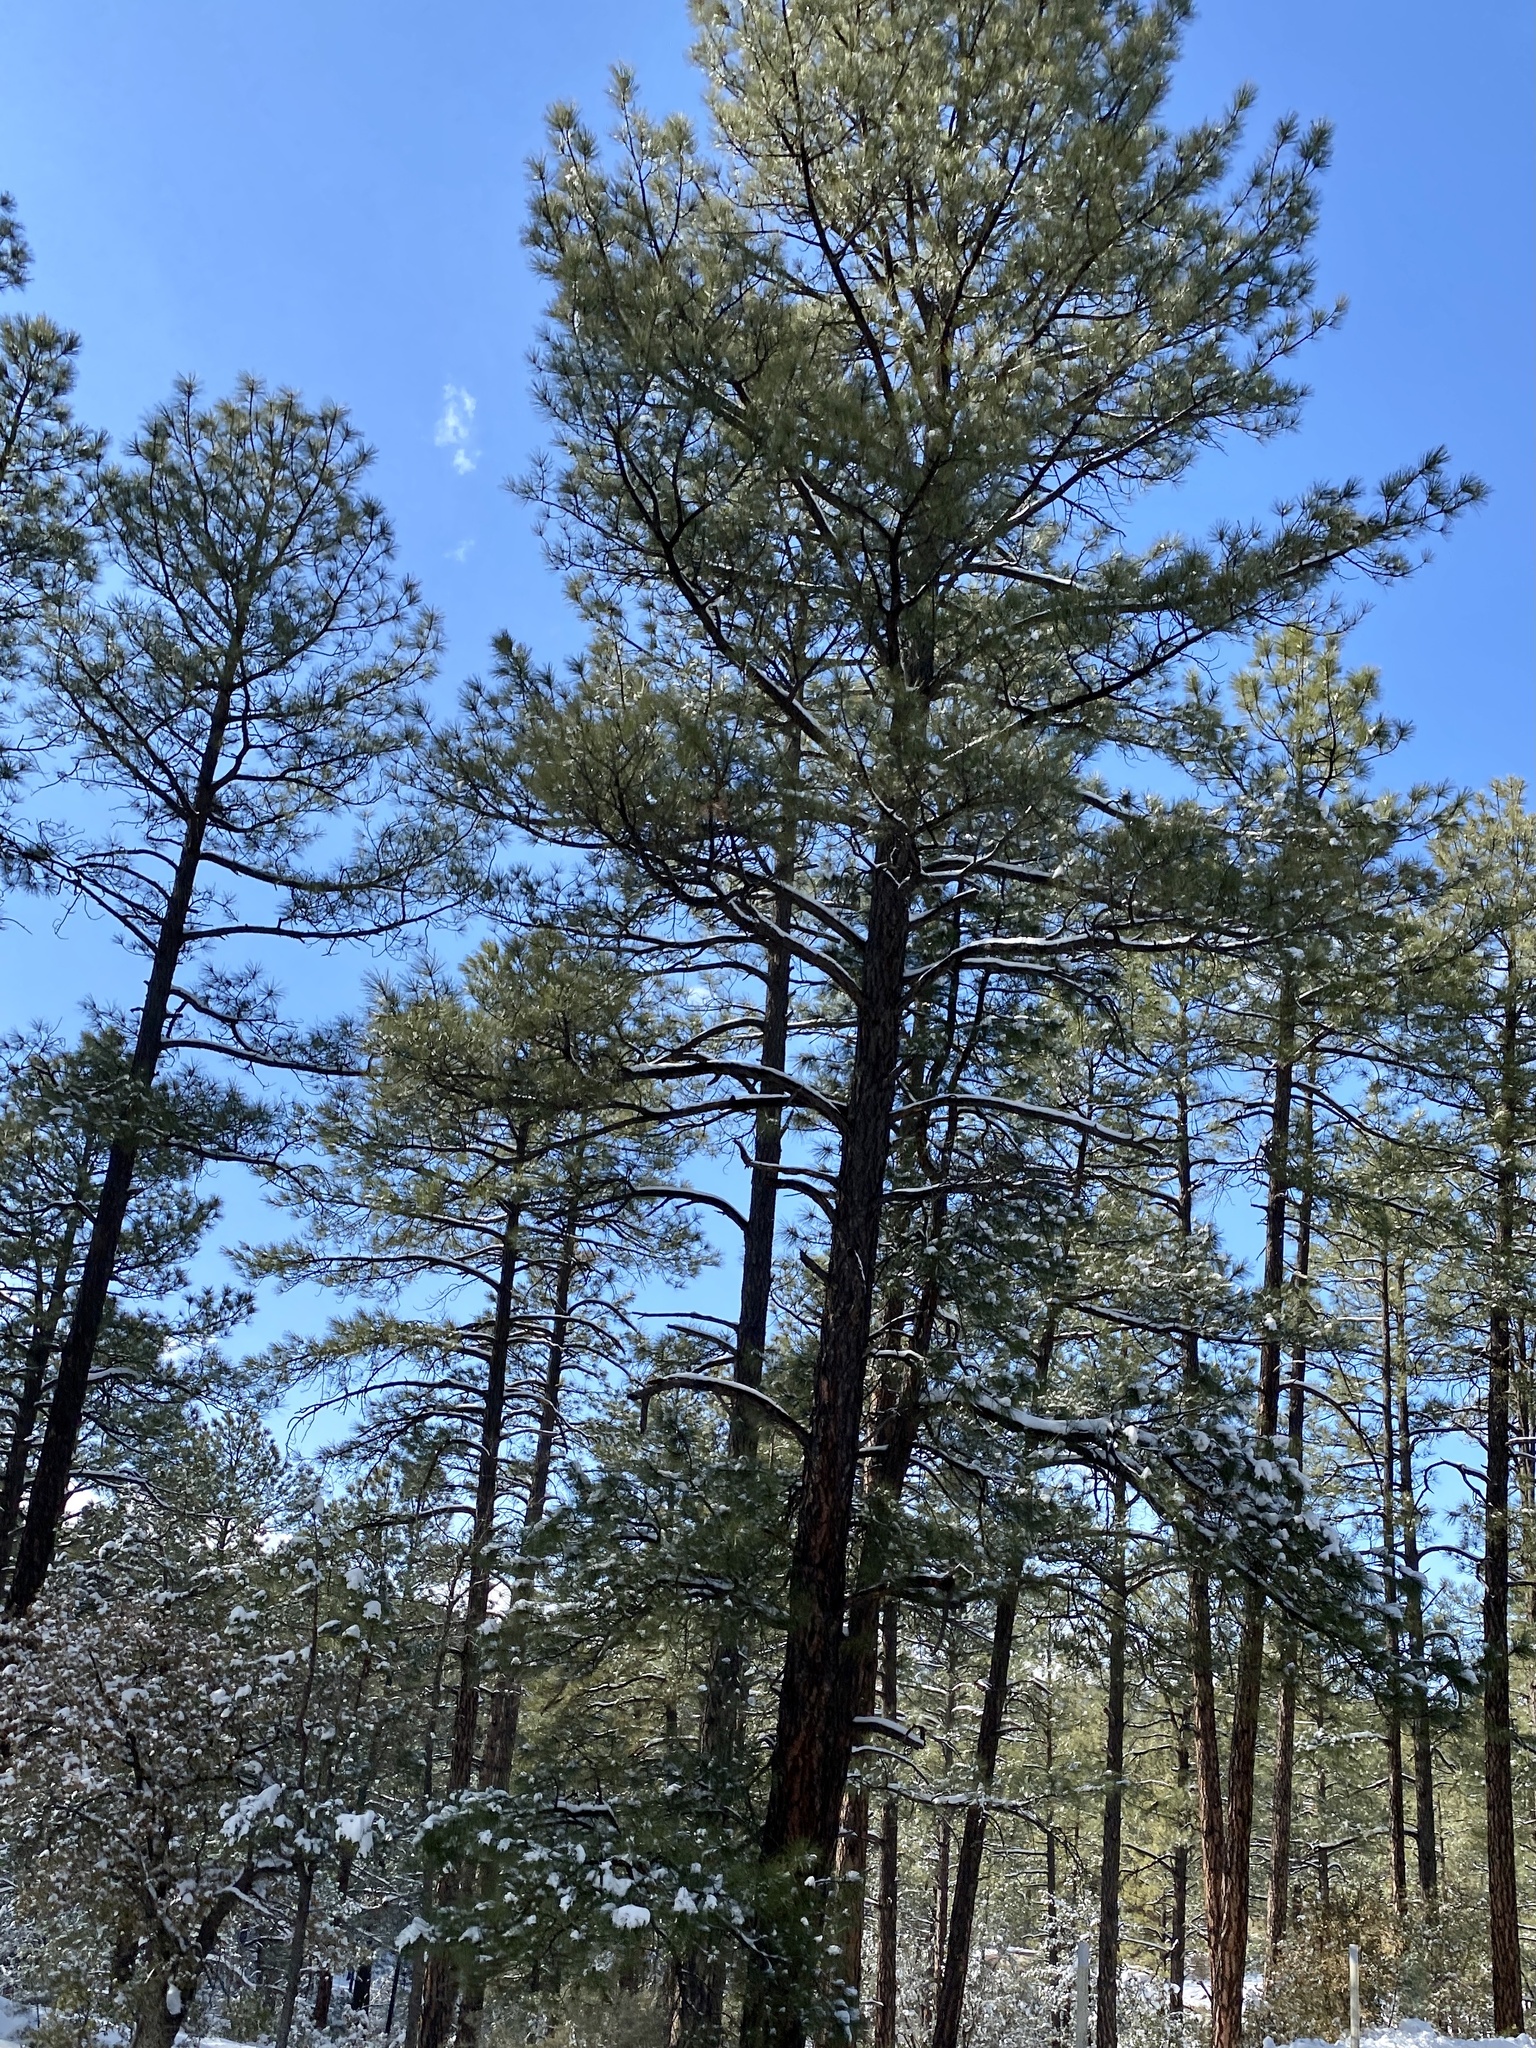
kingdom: Plantae
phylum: Tracheophyta
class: Pinopsida
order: Pinales
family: Pinaceae
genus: Pinus
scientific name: Pinus ponderosa
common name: Western yellow-pine
